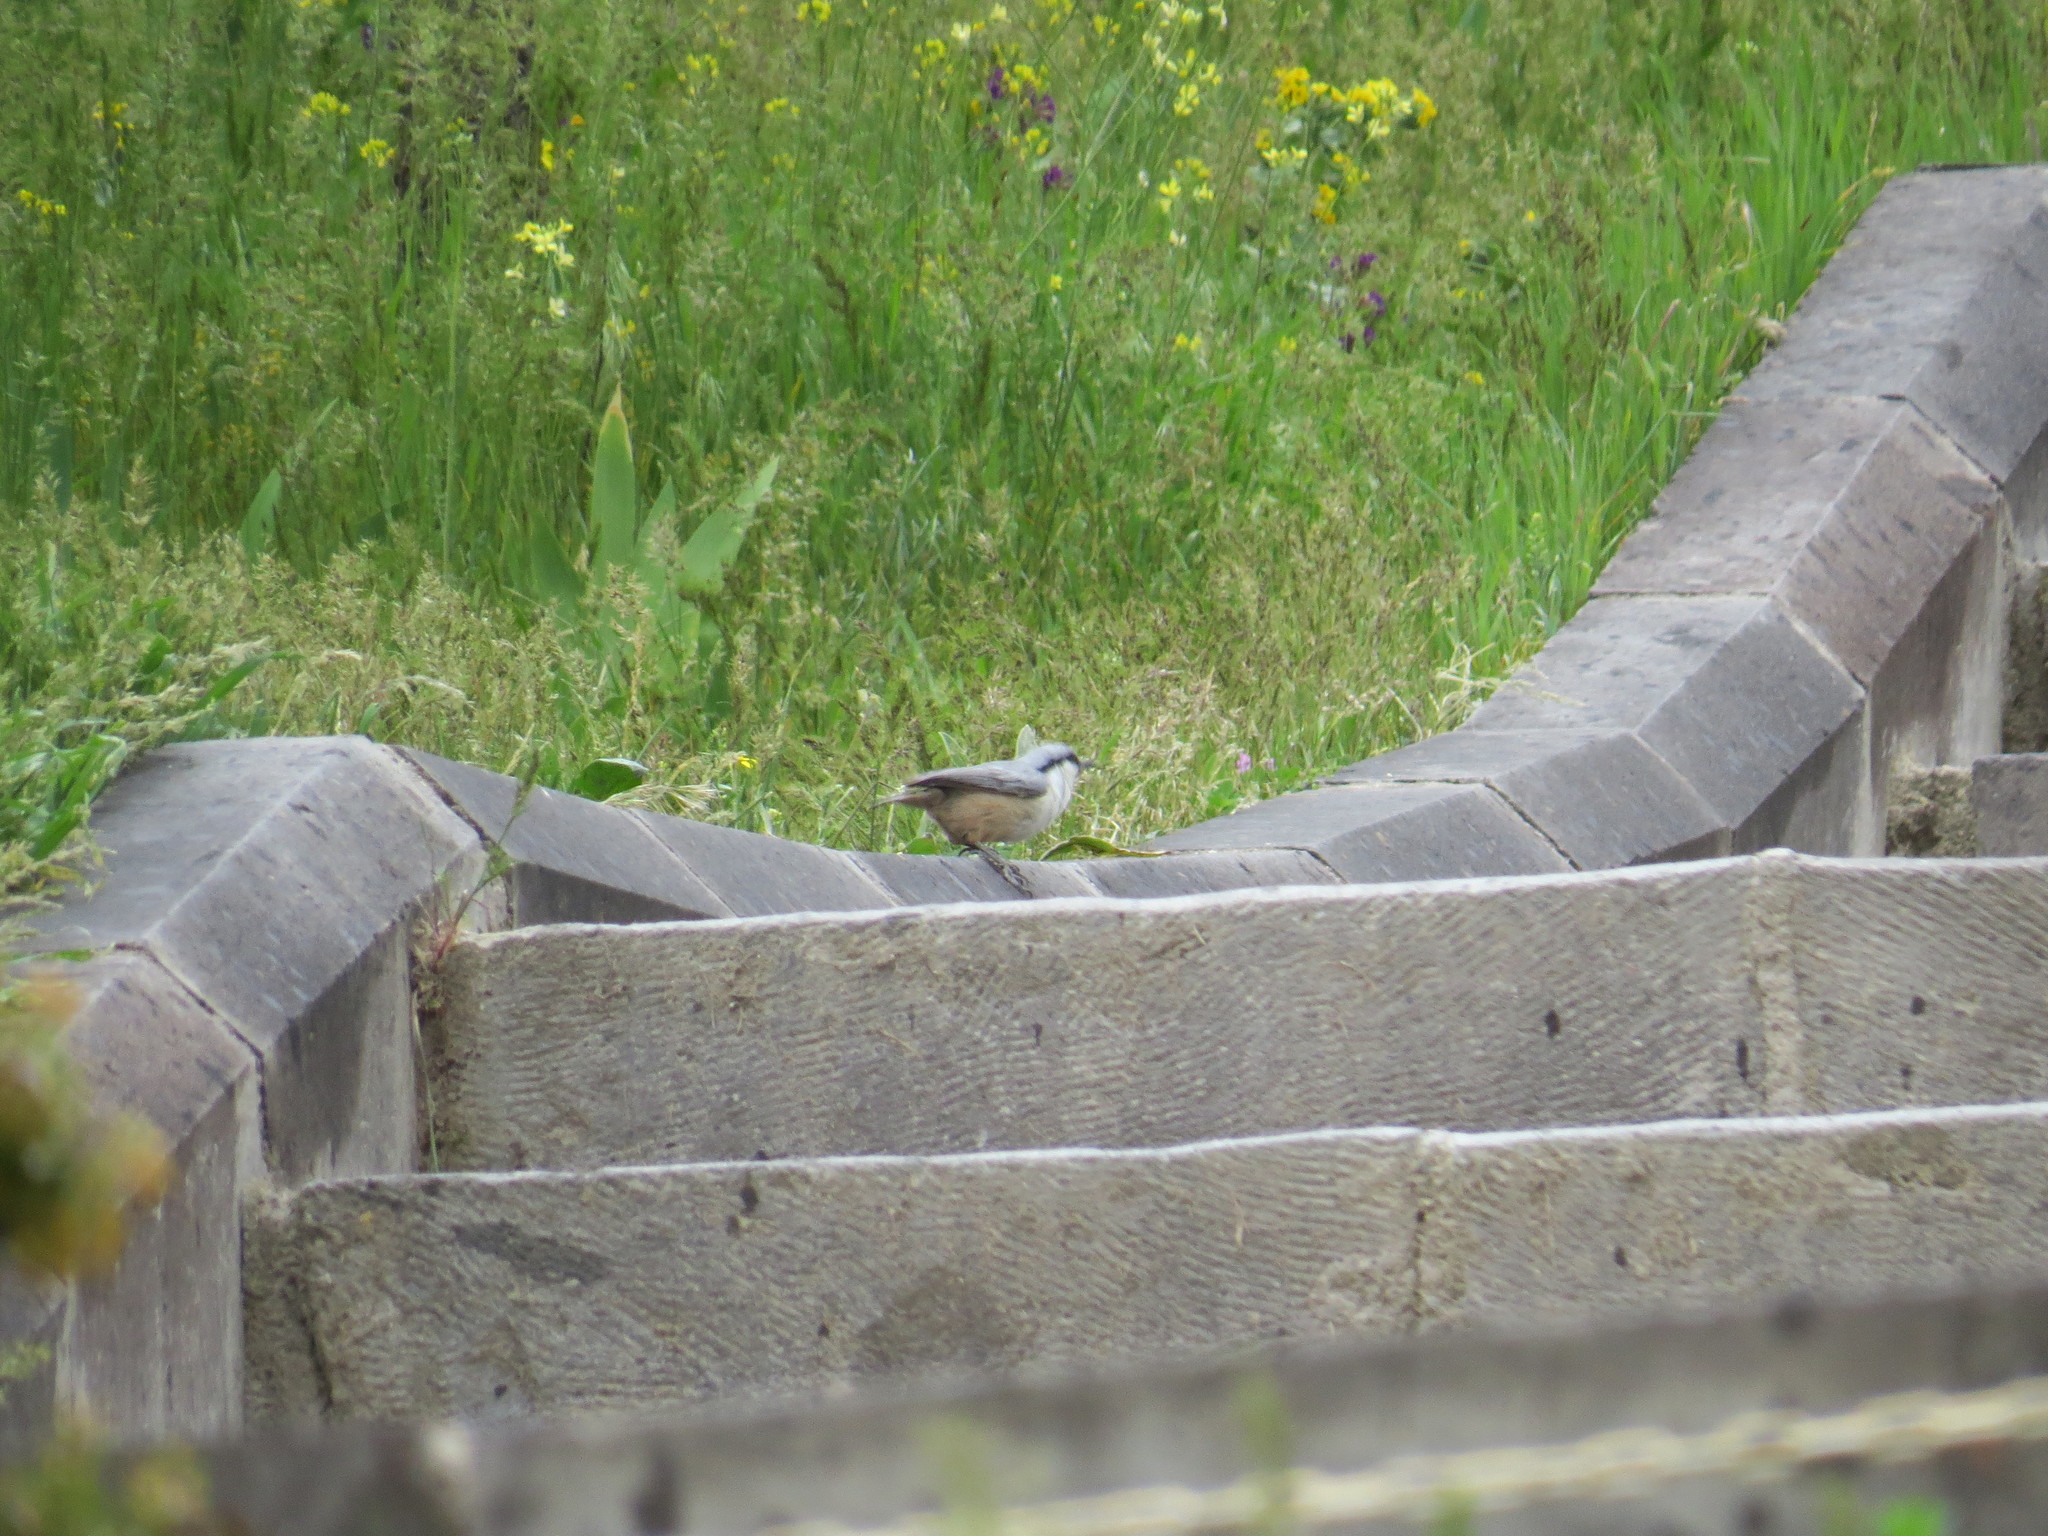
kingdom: Animalia
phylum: Chordata
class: Aves
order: Passeriformes
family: Sittidae
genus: Sitta
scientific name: Sitta neumayer
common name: Western rock nuthatch
